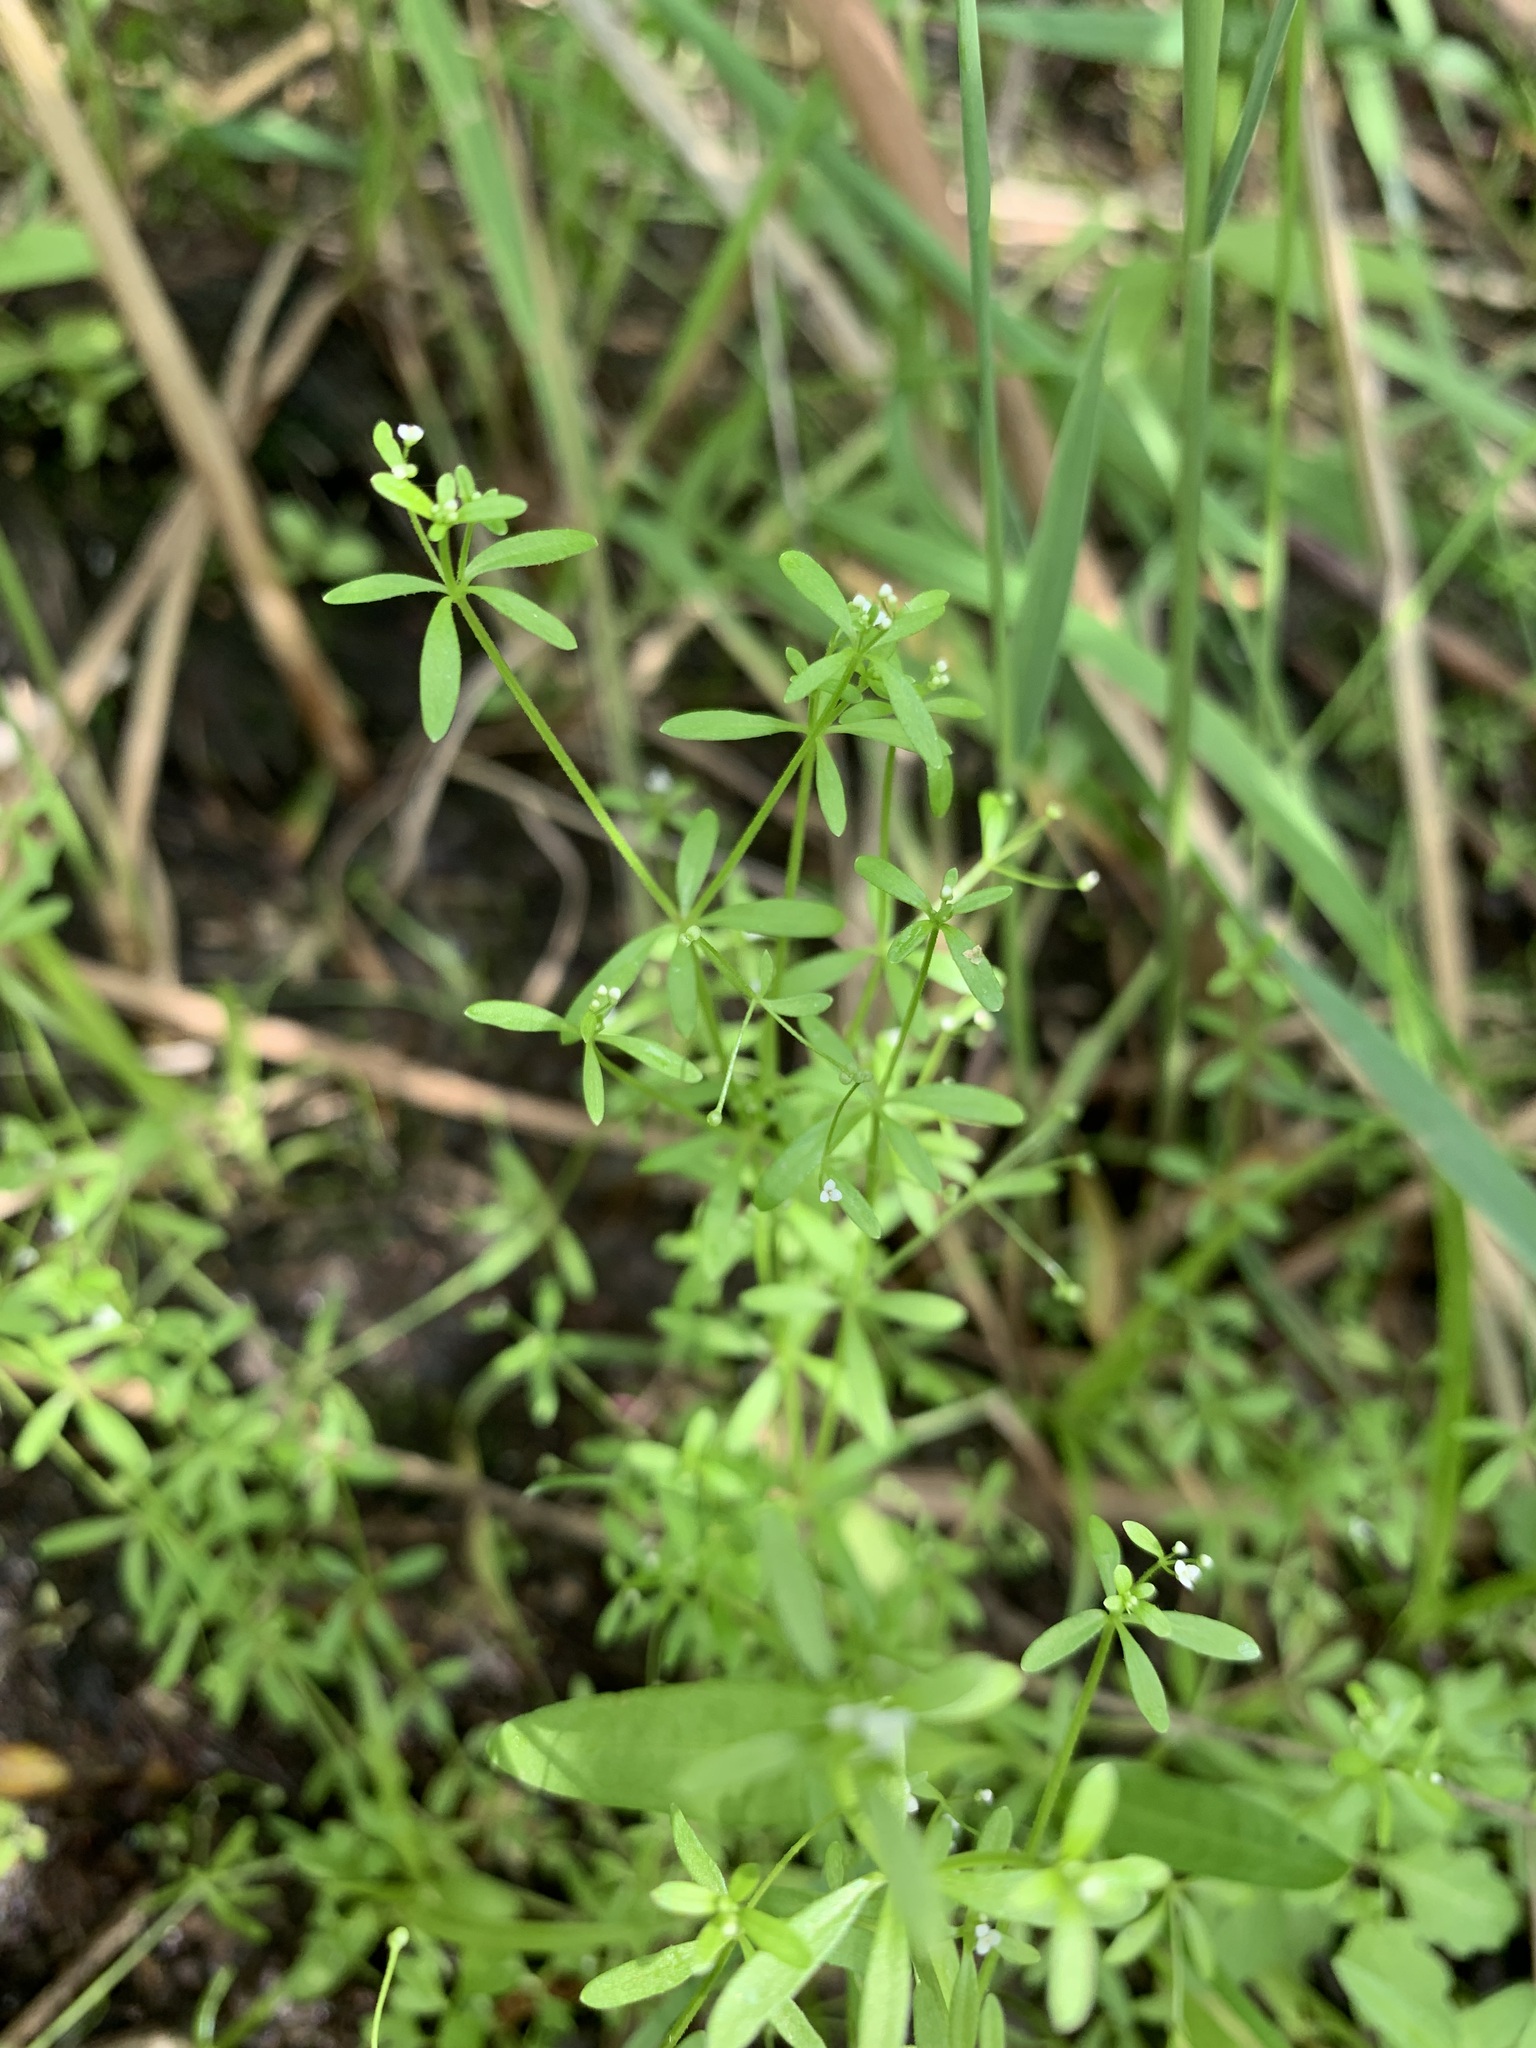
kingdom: Plantae
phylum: Tracheophyta
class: Magnoliopsida
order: Gentianales
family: Rubiaceae
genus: Galium
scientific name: Galium trifidum
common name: Small bedstraw
